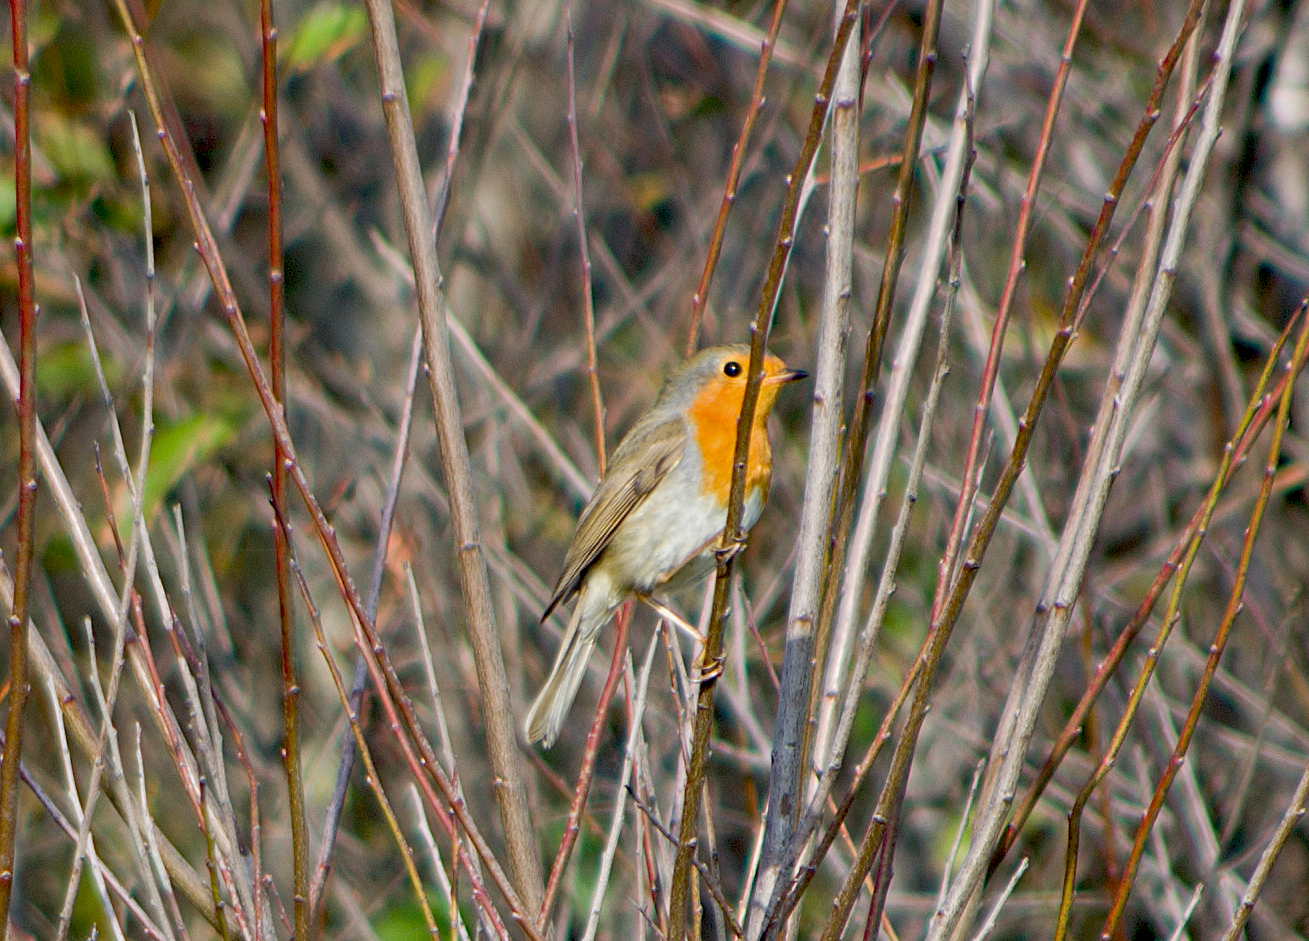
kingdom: Animalia
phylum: Chordata
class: Aves
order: Passeriformes
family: Muscicapidae
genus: Erithacus
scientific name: Erithacus rubecula
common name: European robin
